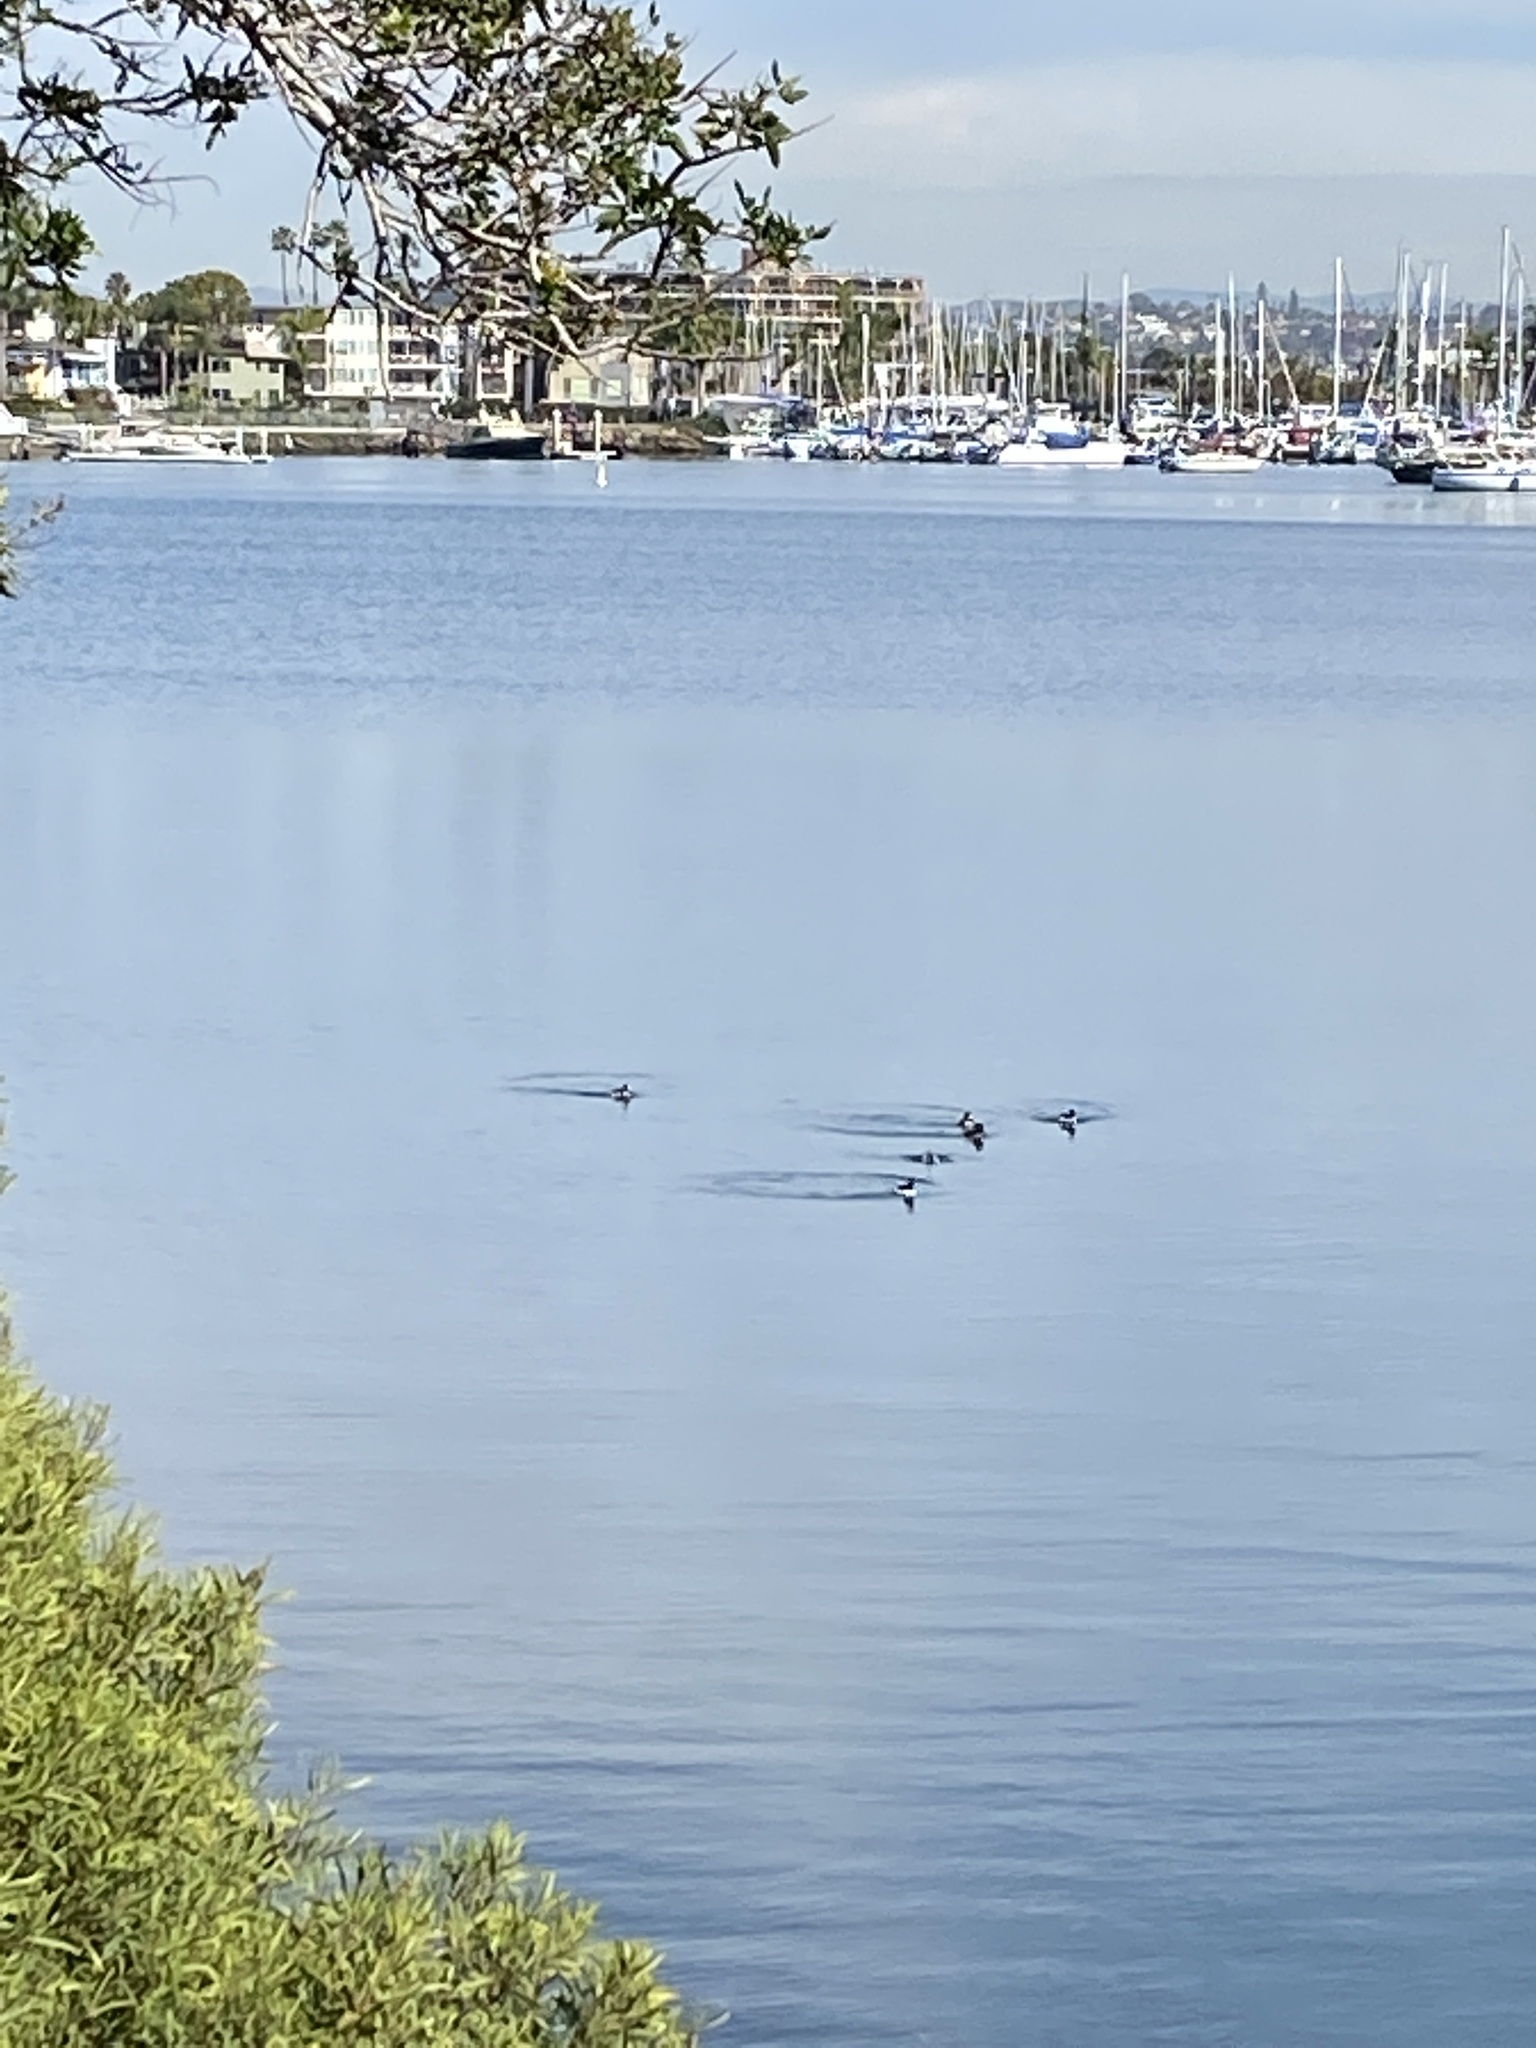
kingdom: Animalia
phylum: Chordata
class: Aves
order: Anseriformes
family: Anatidae
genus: Bucephala
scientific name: Bucephala albeola
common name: Bufflehead
